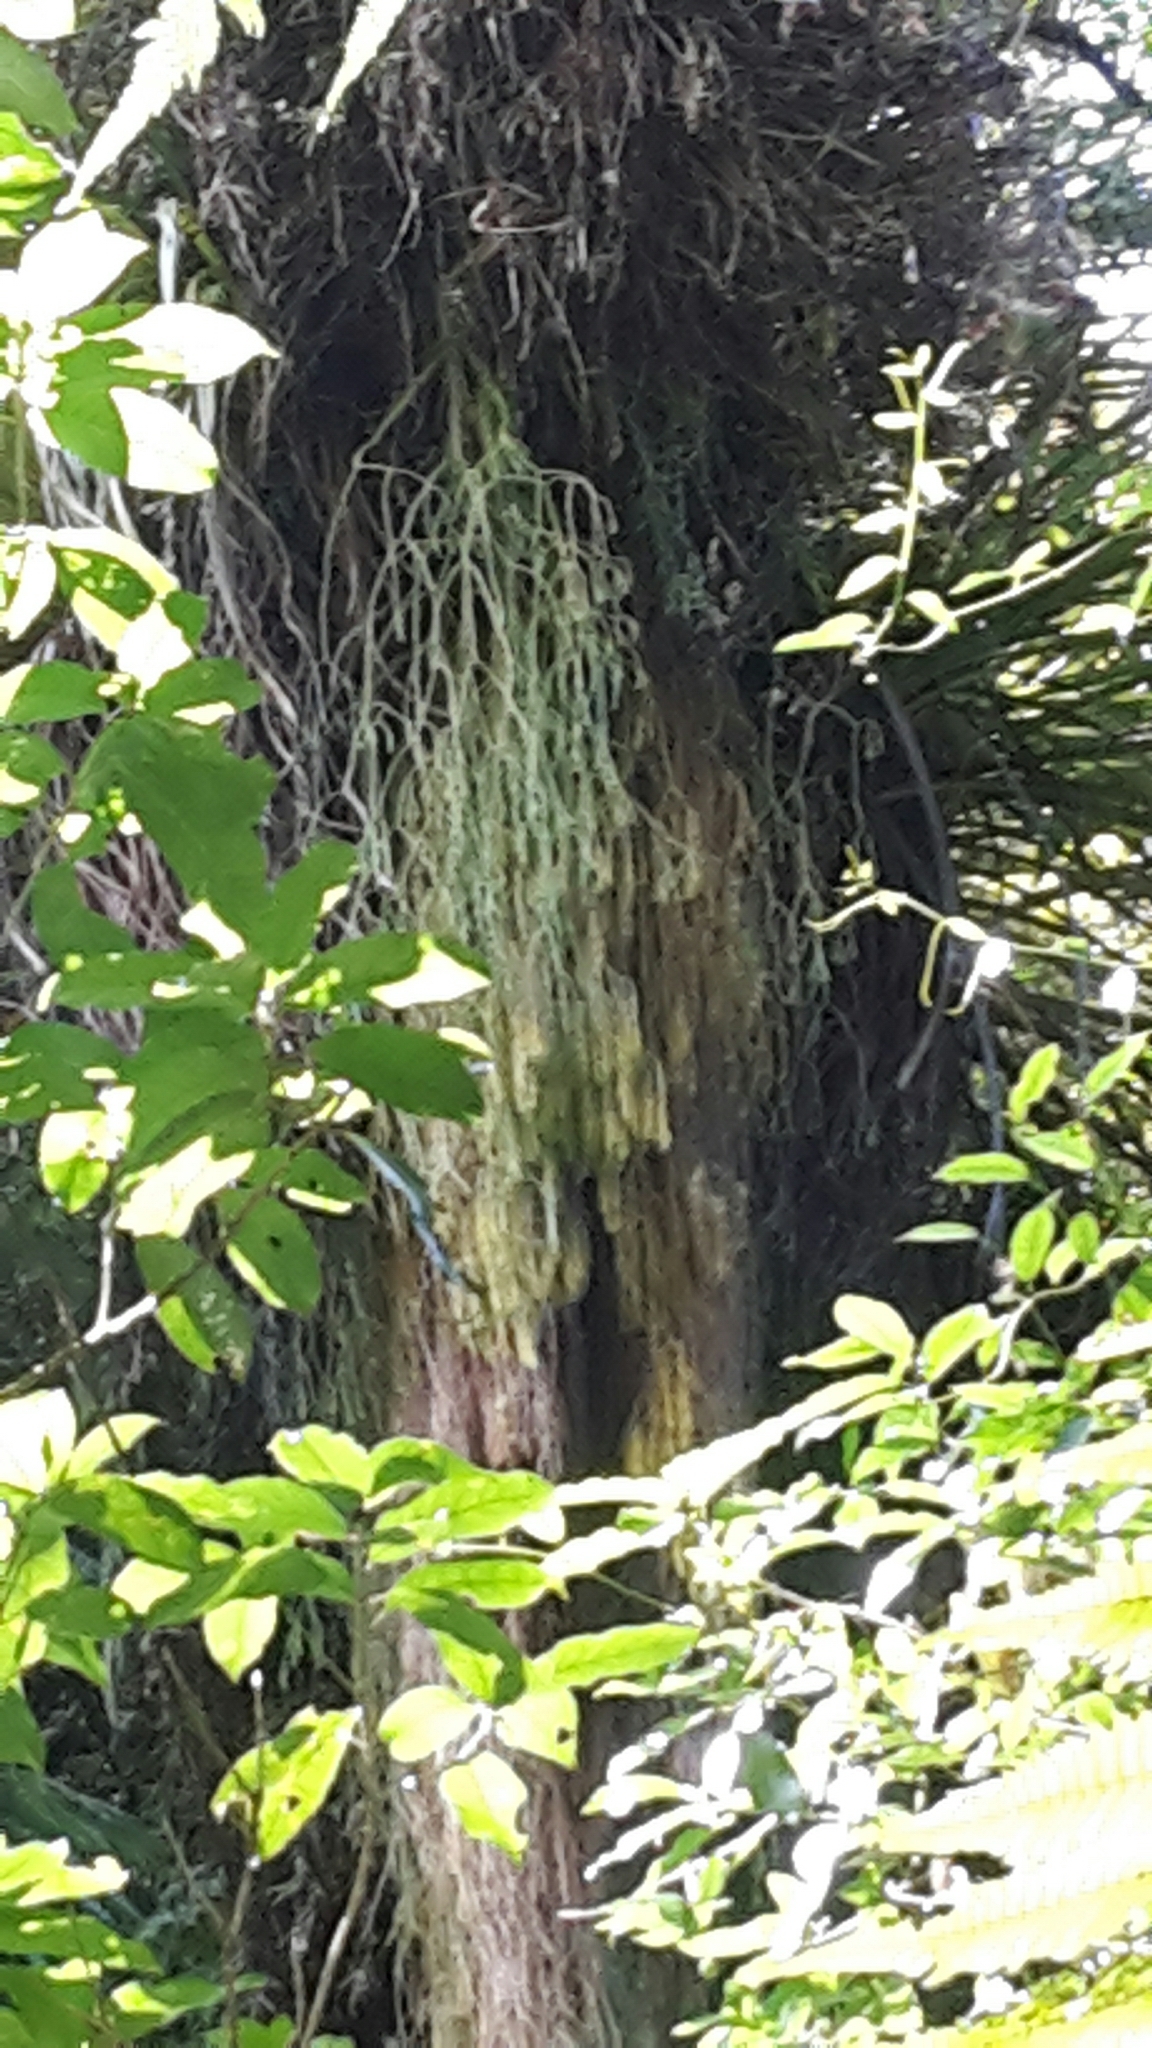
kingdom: Plantae
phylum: Tracheophyta
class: Lycopodiopsida
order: Lycopodiales
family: Lycopodiaceae
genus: Phlegmariurus
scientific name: Phlegmariurus varius
